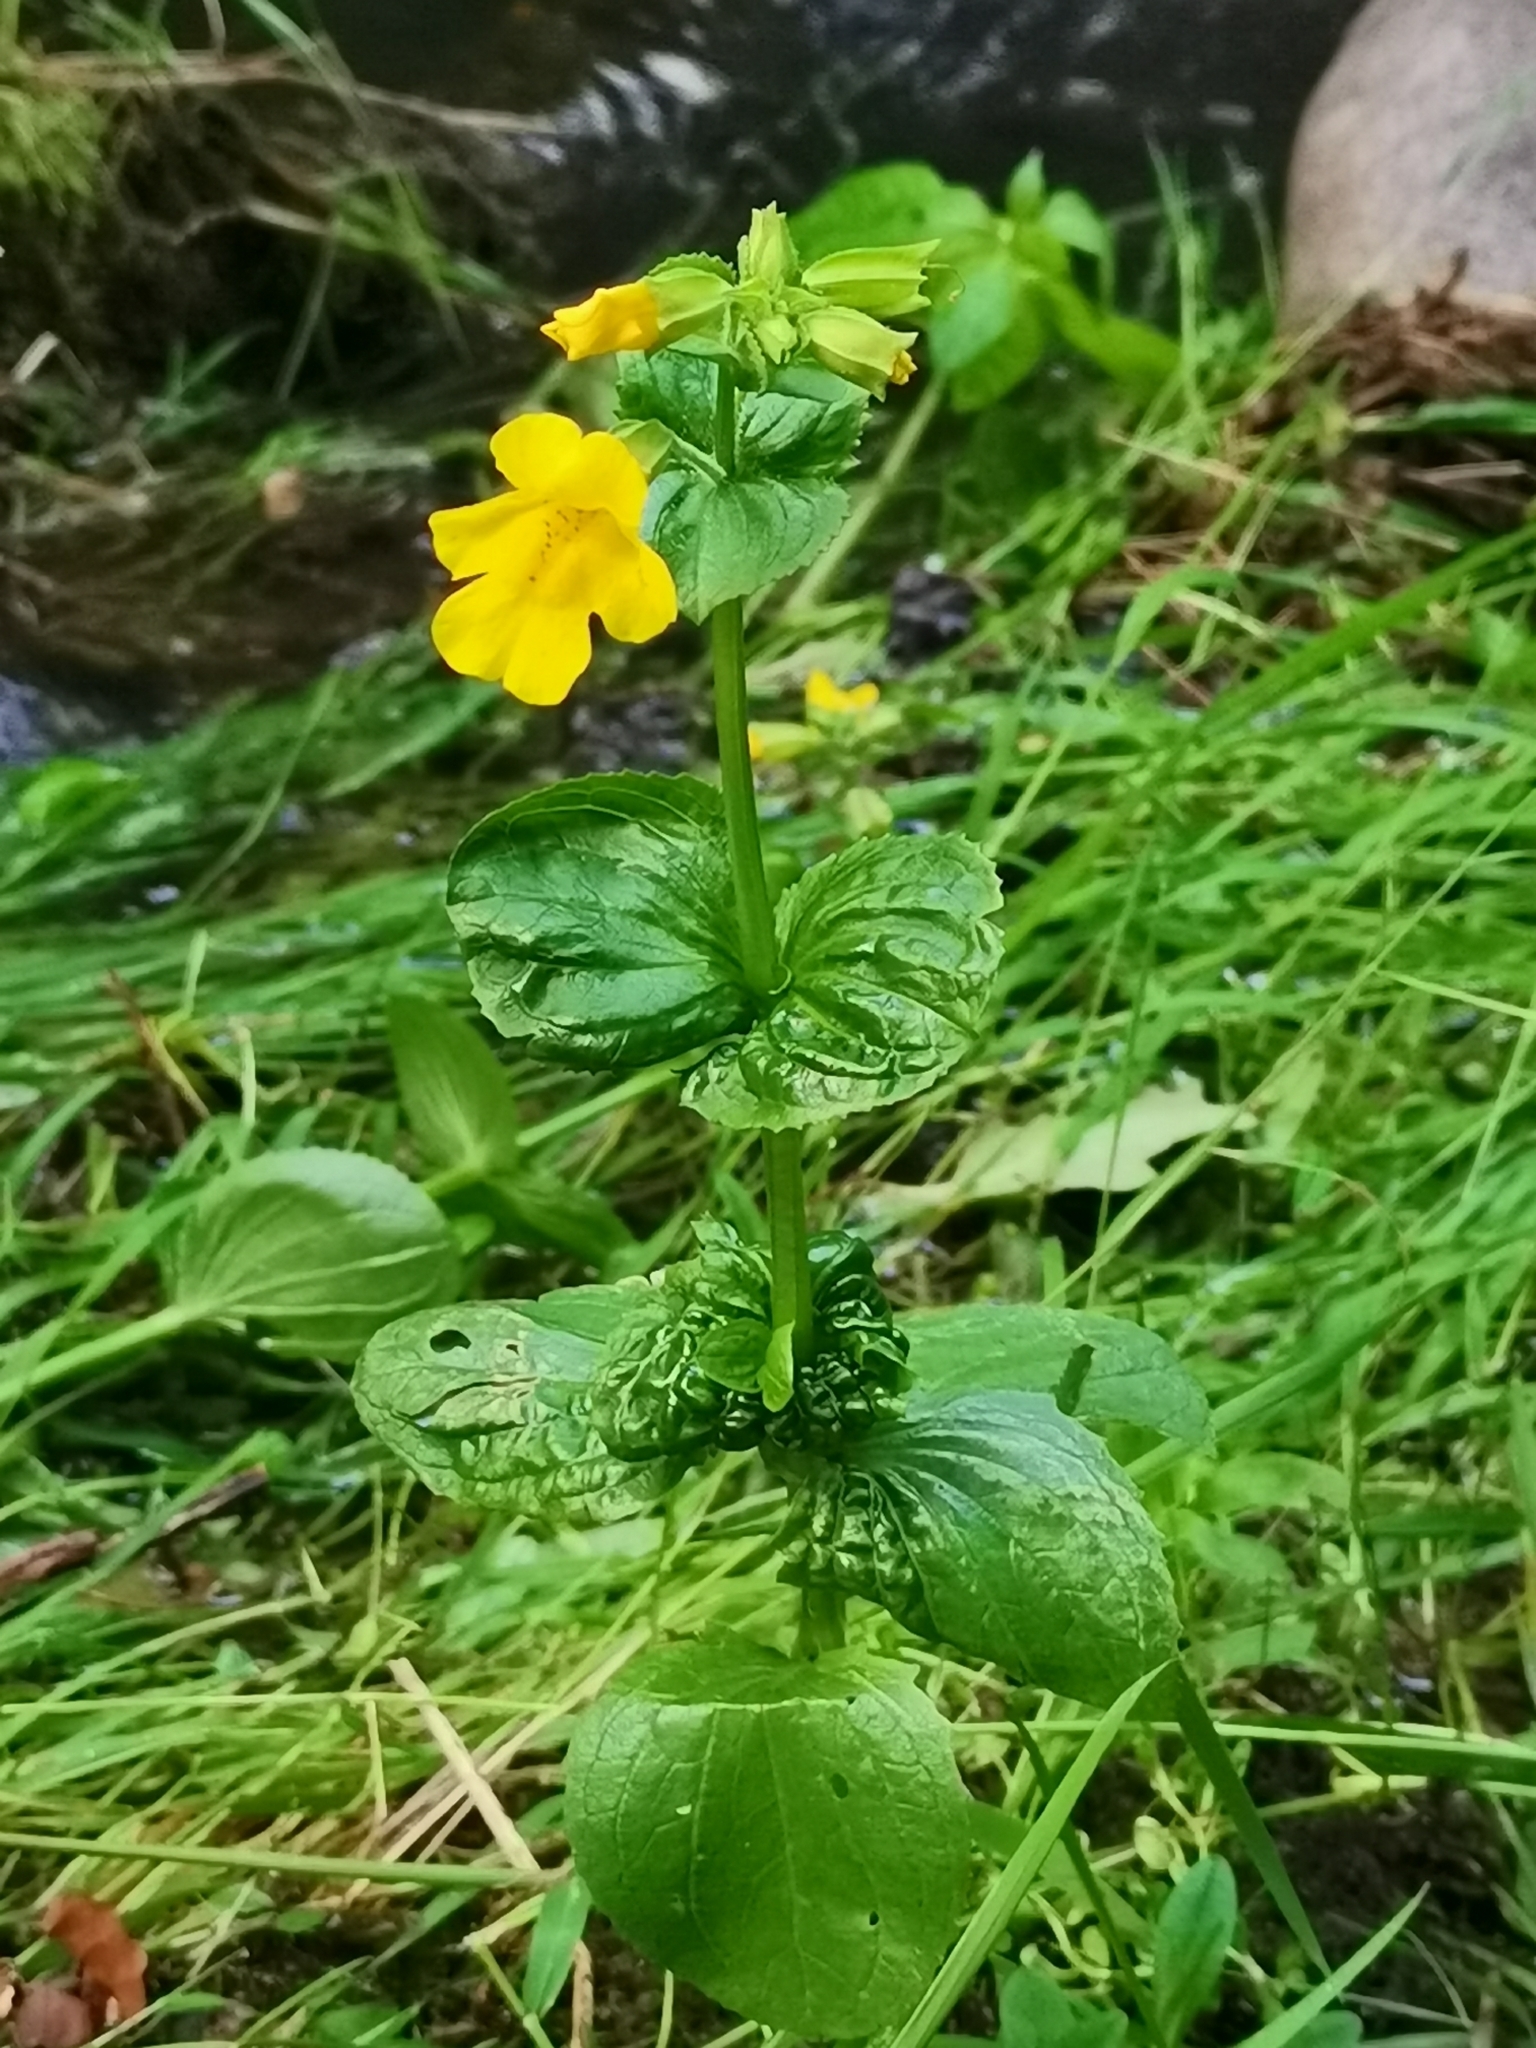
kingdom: Plantae
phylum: Tracheophyta
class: Magnoliopsida
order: Lamiales
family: Phrymaceae
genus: Erythranthe
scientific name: Erythranthe guttata
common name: Monkeyflower
